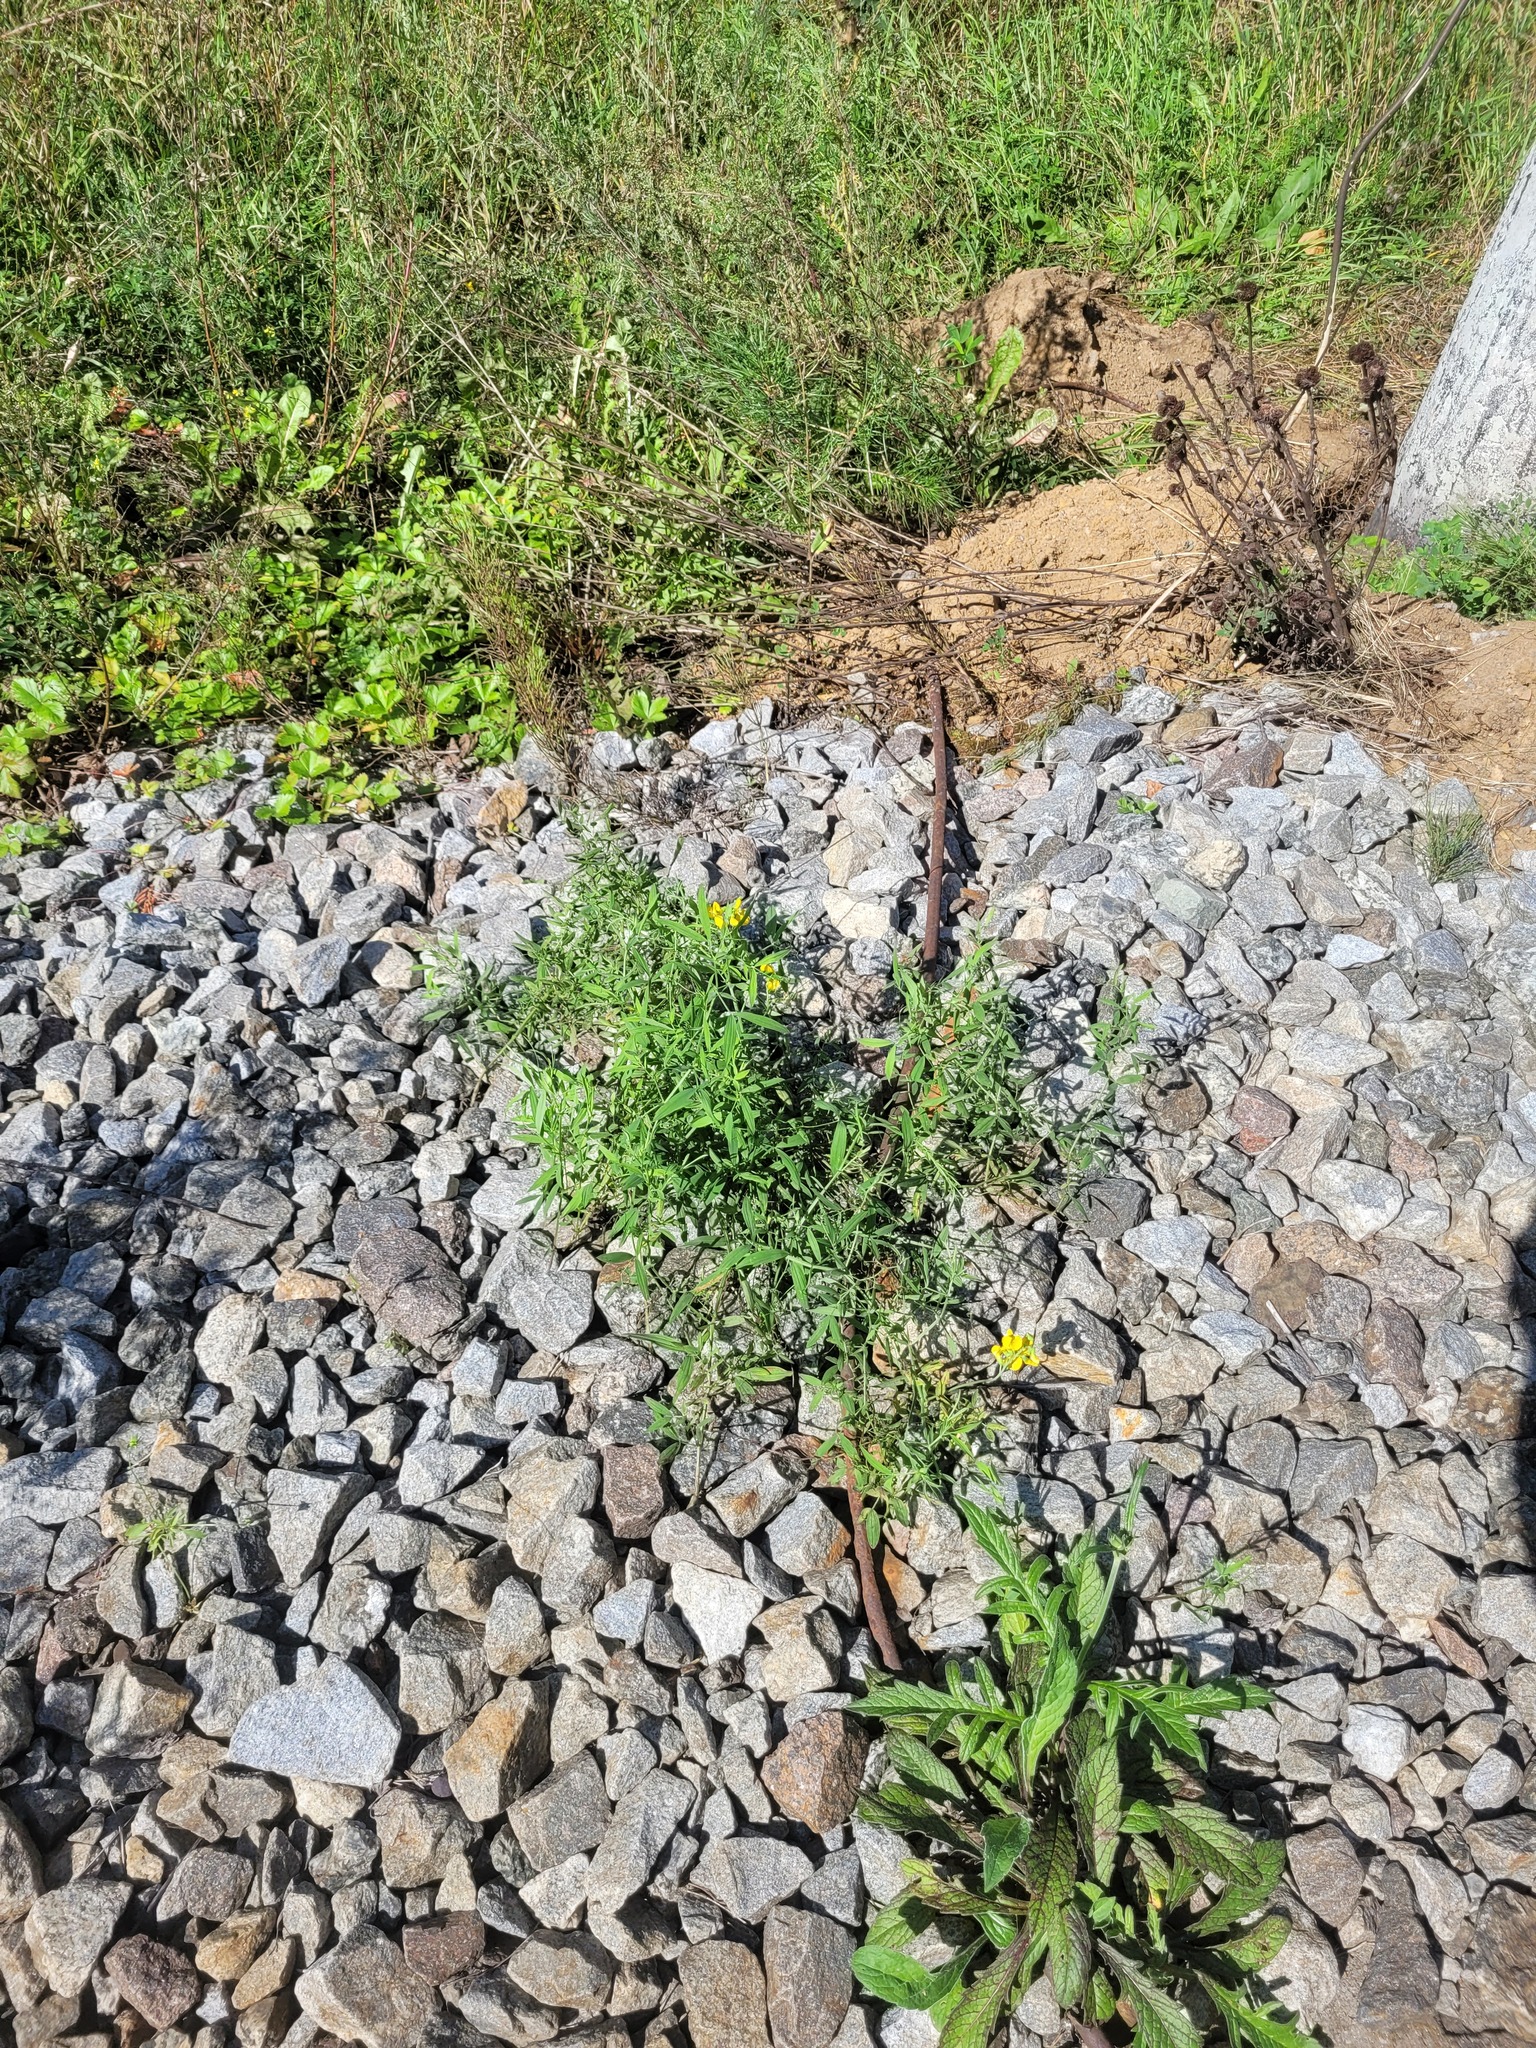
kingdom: Plantae
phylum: Tracheophyta
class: Magnoliopsida
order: Fabales
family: Fabaceae
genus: Lathyrus
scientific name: Lathyrus pratensis
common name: Meadow vetchling
